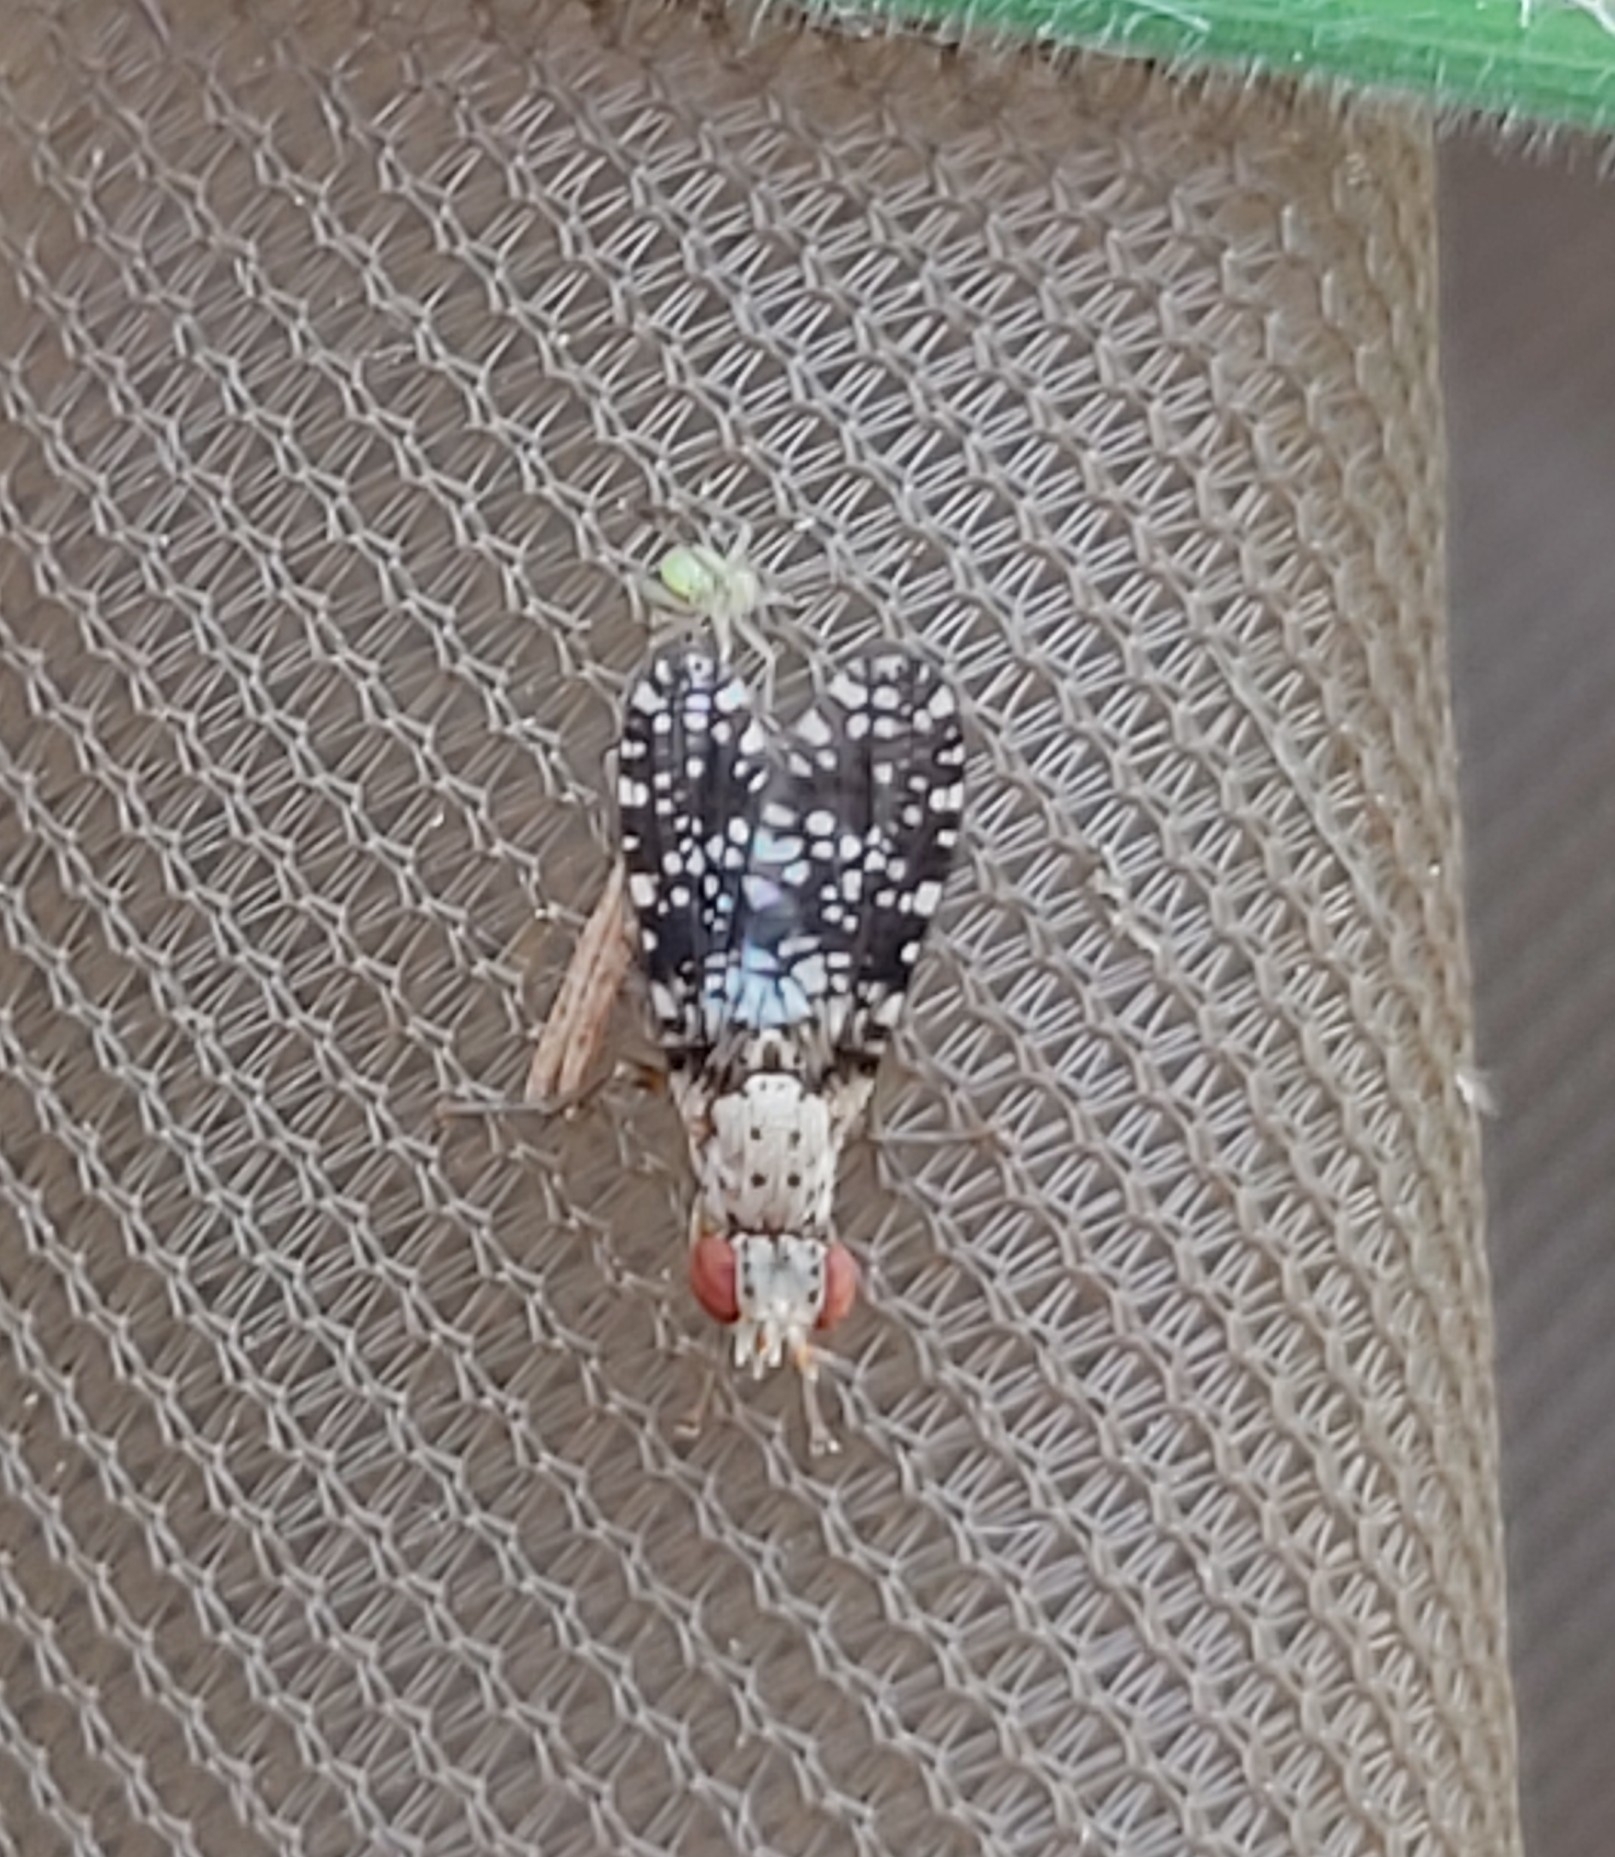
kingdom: Animalia
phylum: Arthropoda
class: Insecta
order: Diptera
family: Sciomyzidae
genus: Trypetoptera
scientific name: Trypetoptera punctulata
